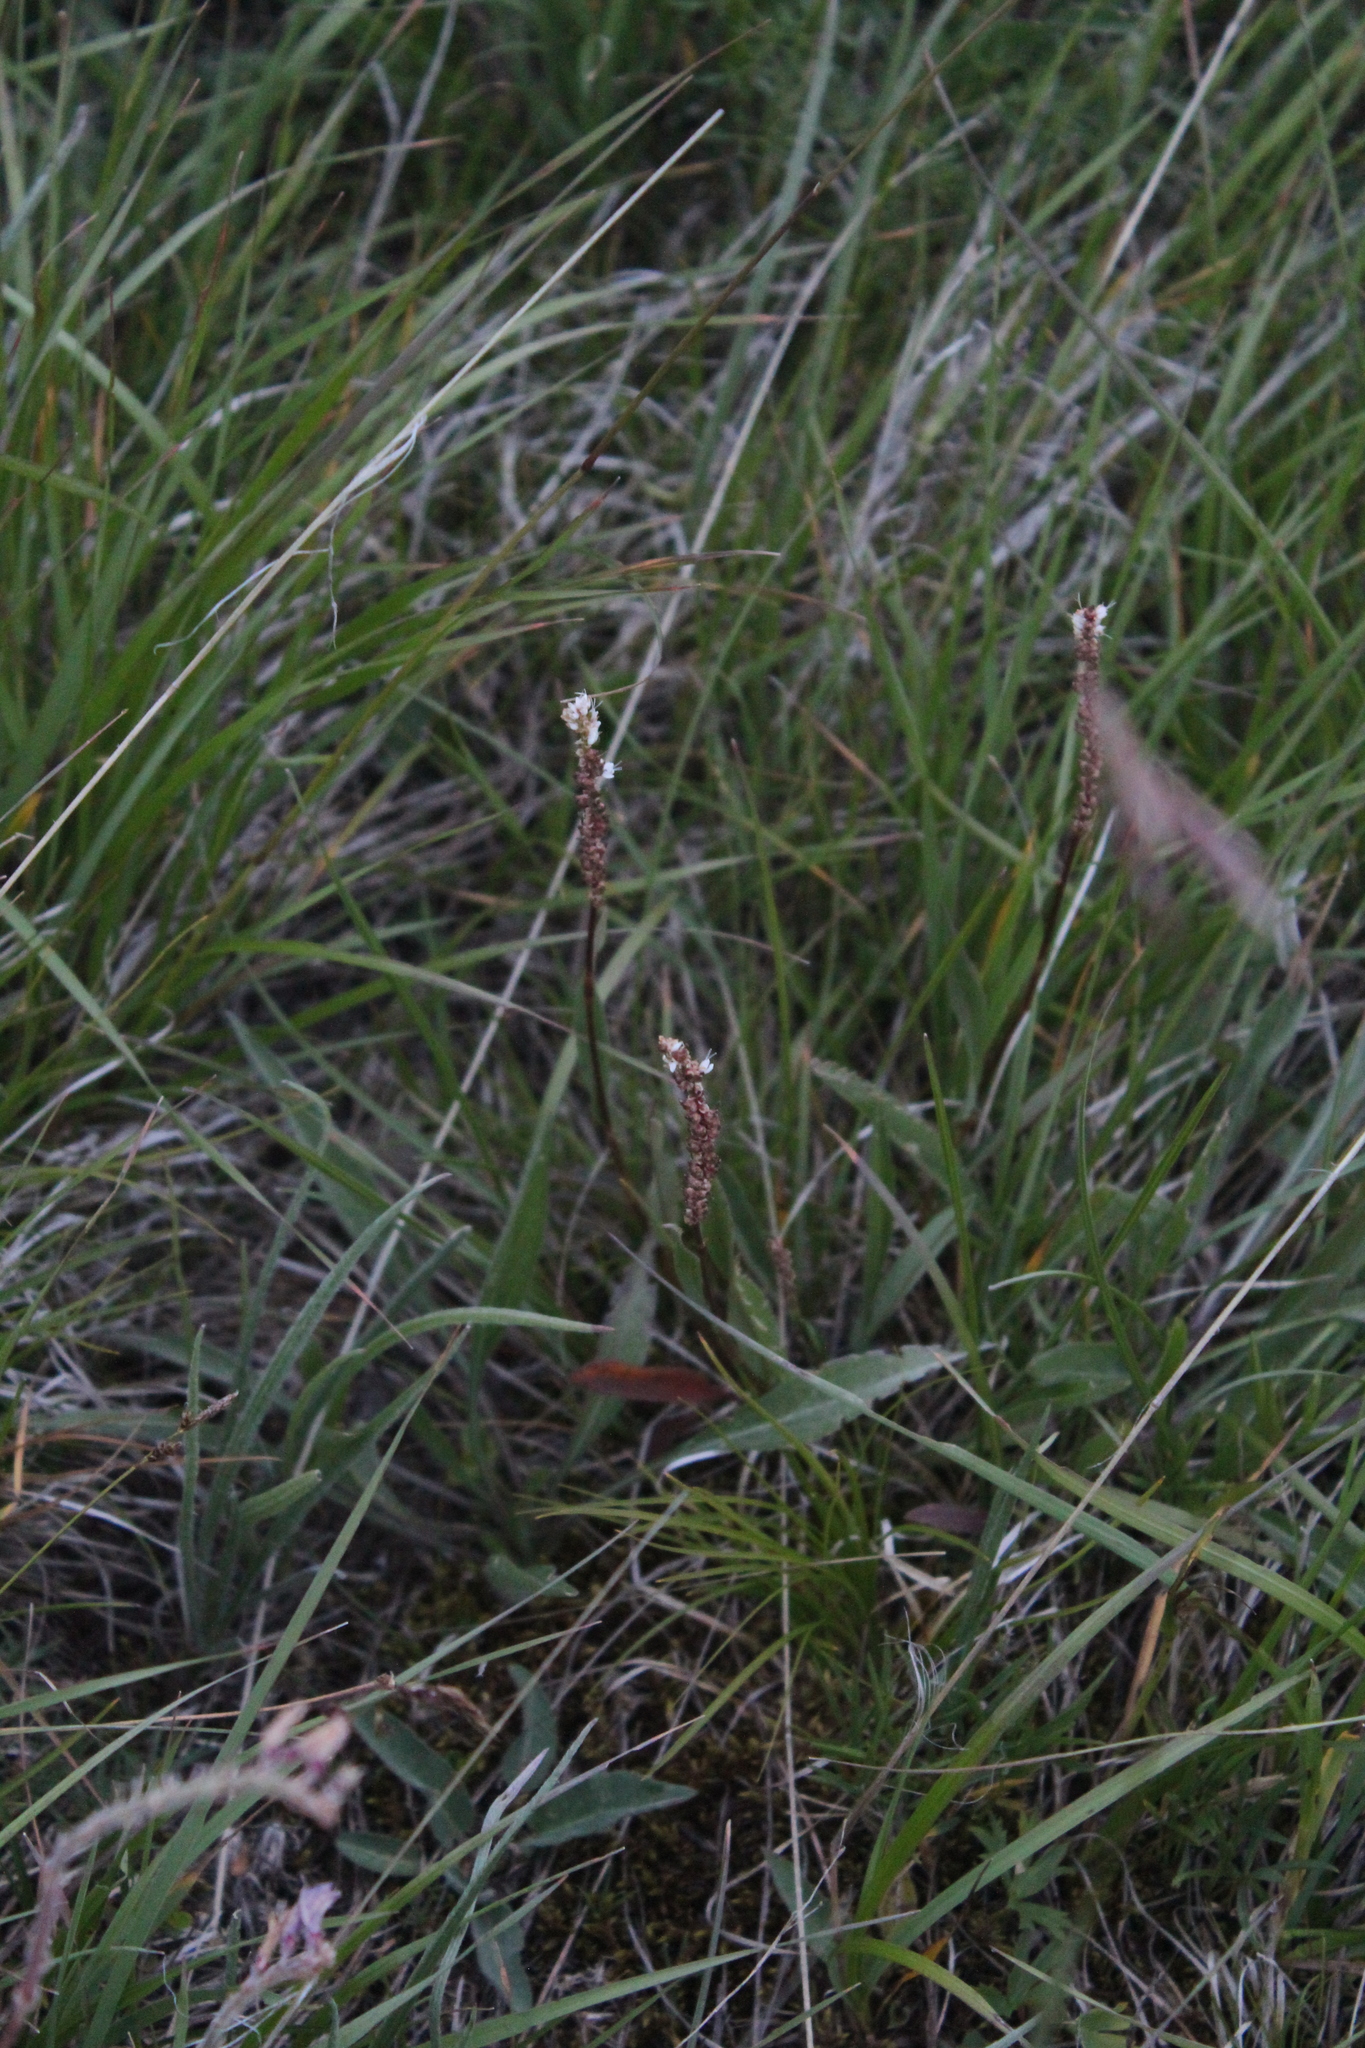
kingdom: Plantae
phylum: Tracheophyta
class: Magnoliopsida
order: Caryophyllales
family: Polygonaceae
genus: Bistorta
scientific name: Bistorta vivipara
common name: Alpine bistort
